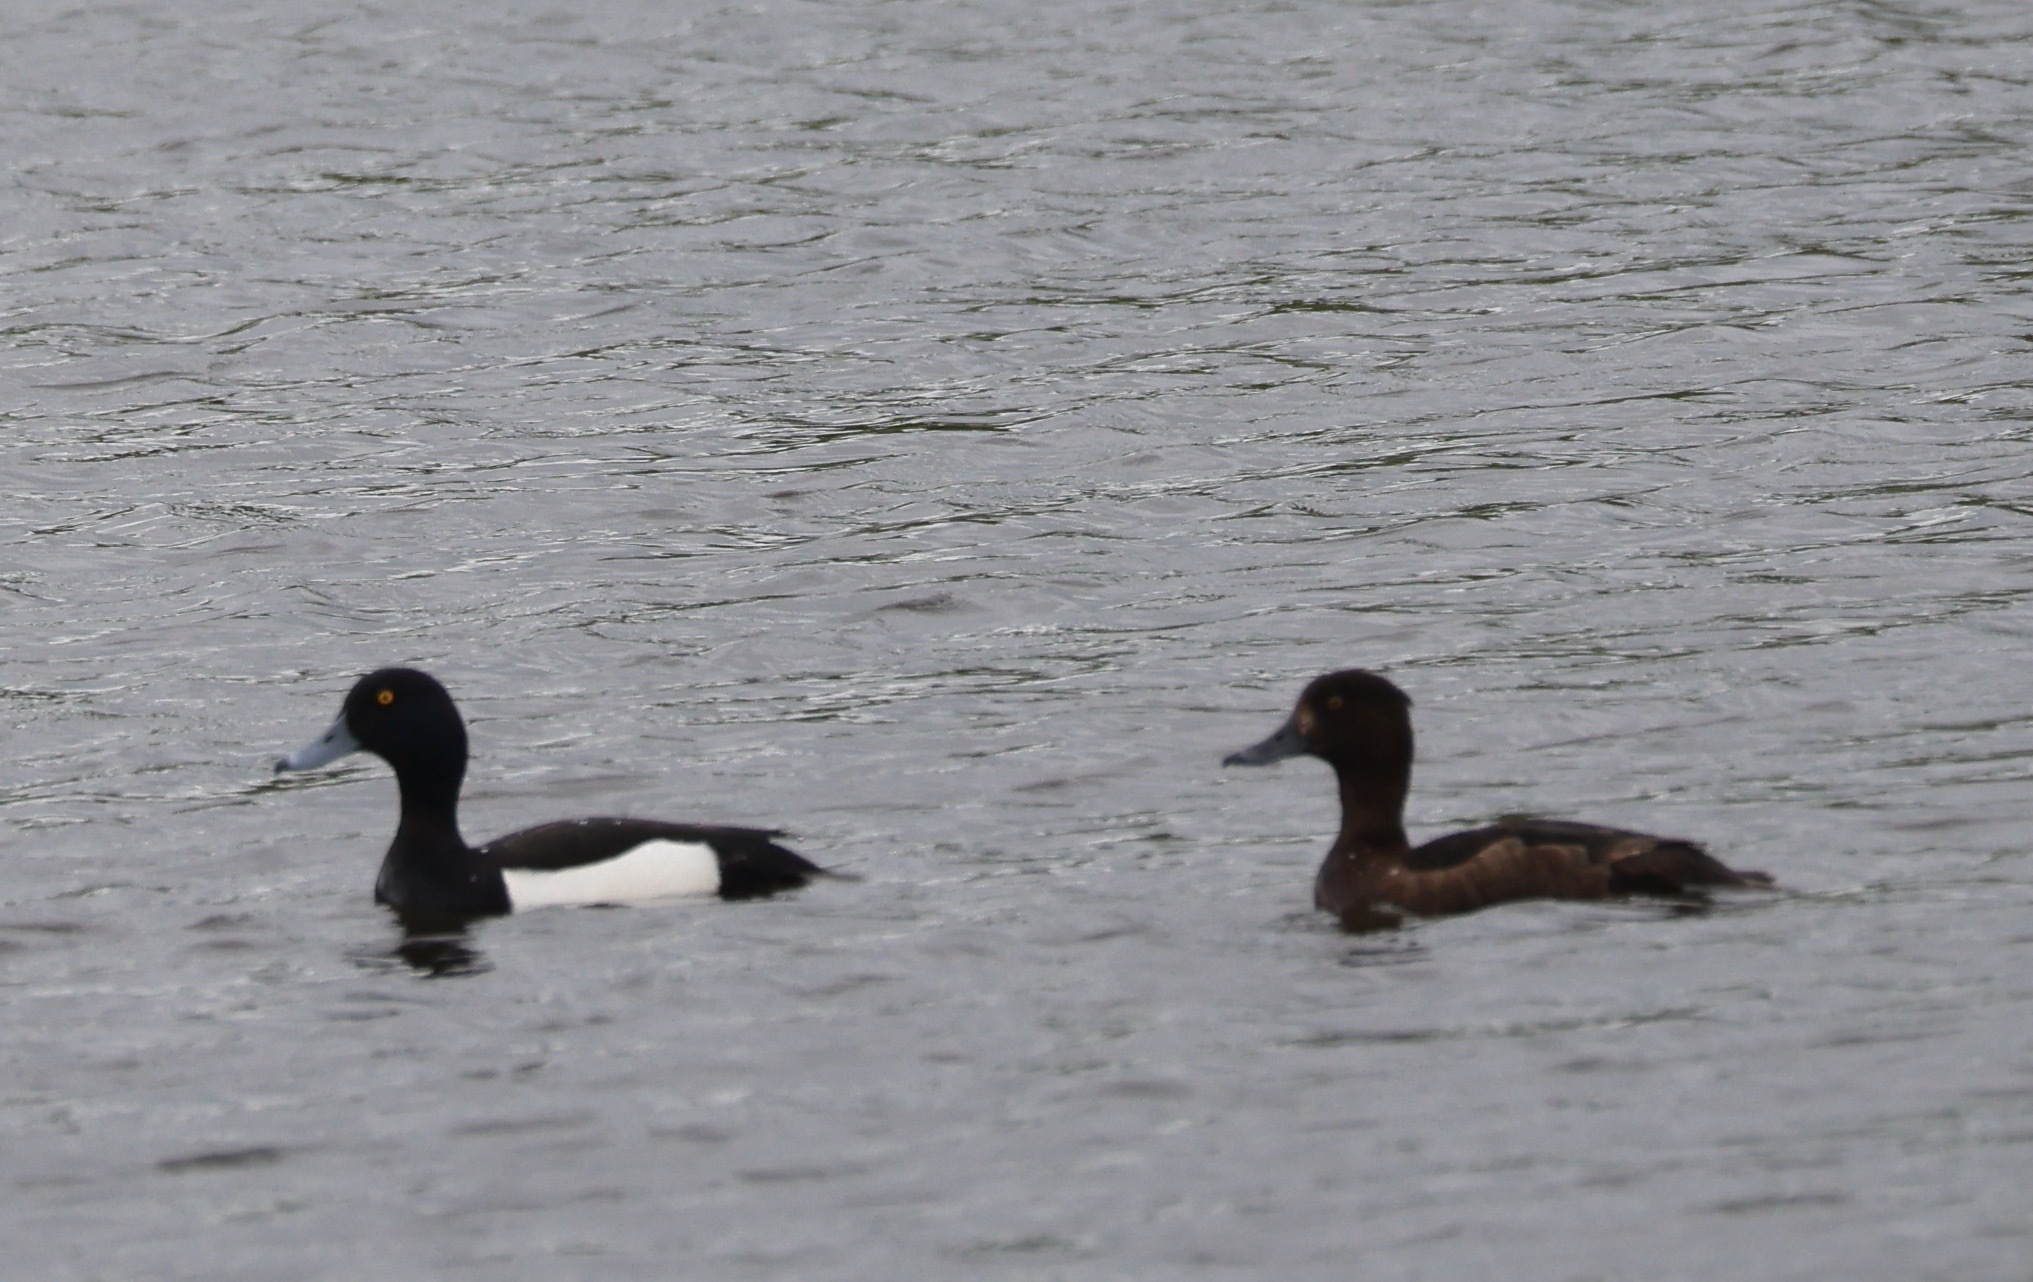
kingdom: Animalia
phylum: Chordata
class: Aves
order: Anseriformes
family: Anatidae
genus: Aythya
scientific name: Aythya fuligula
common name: Tufted duck
